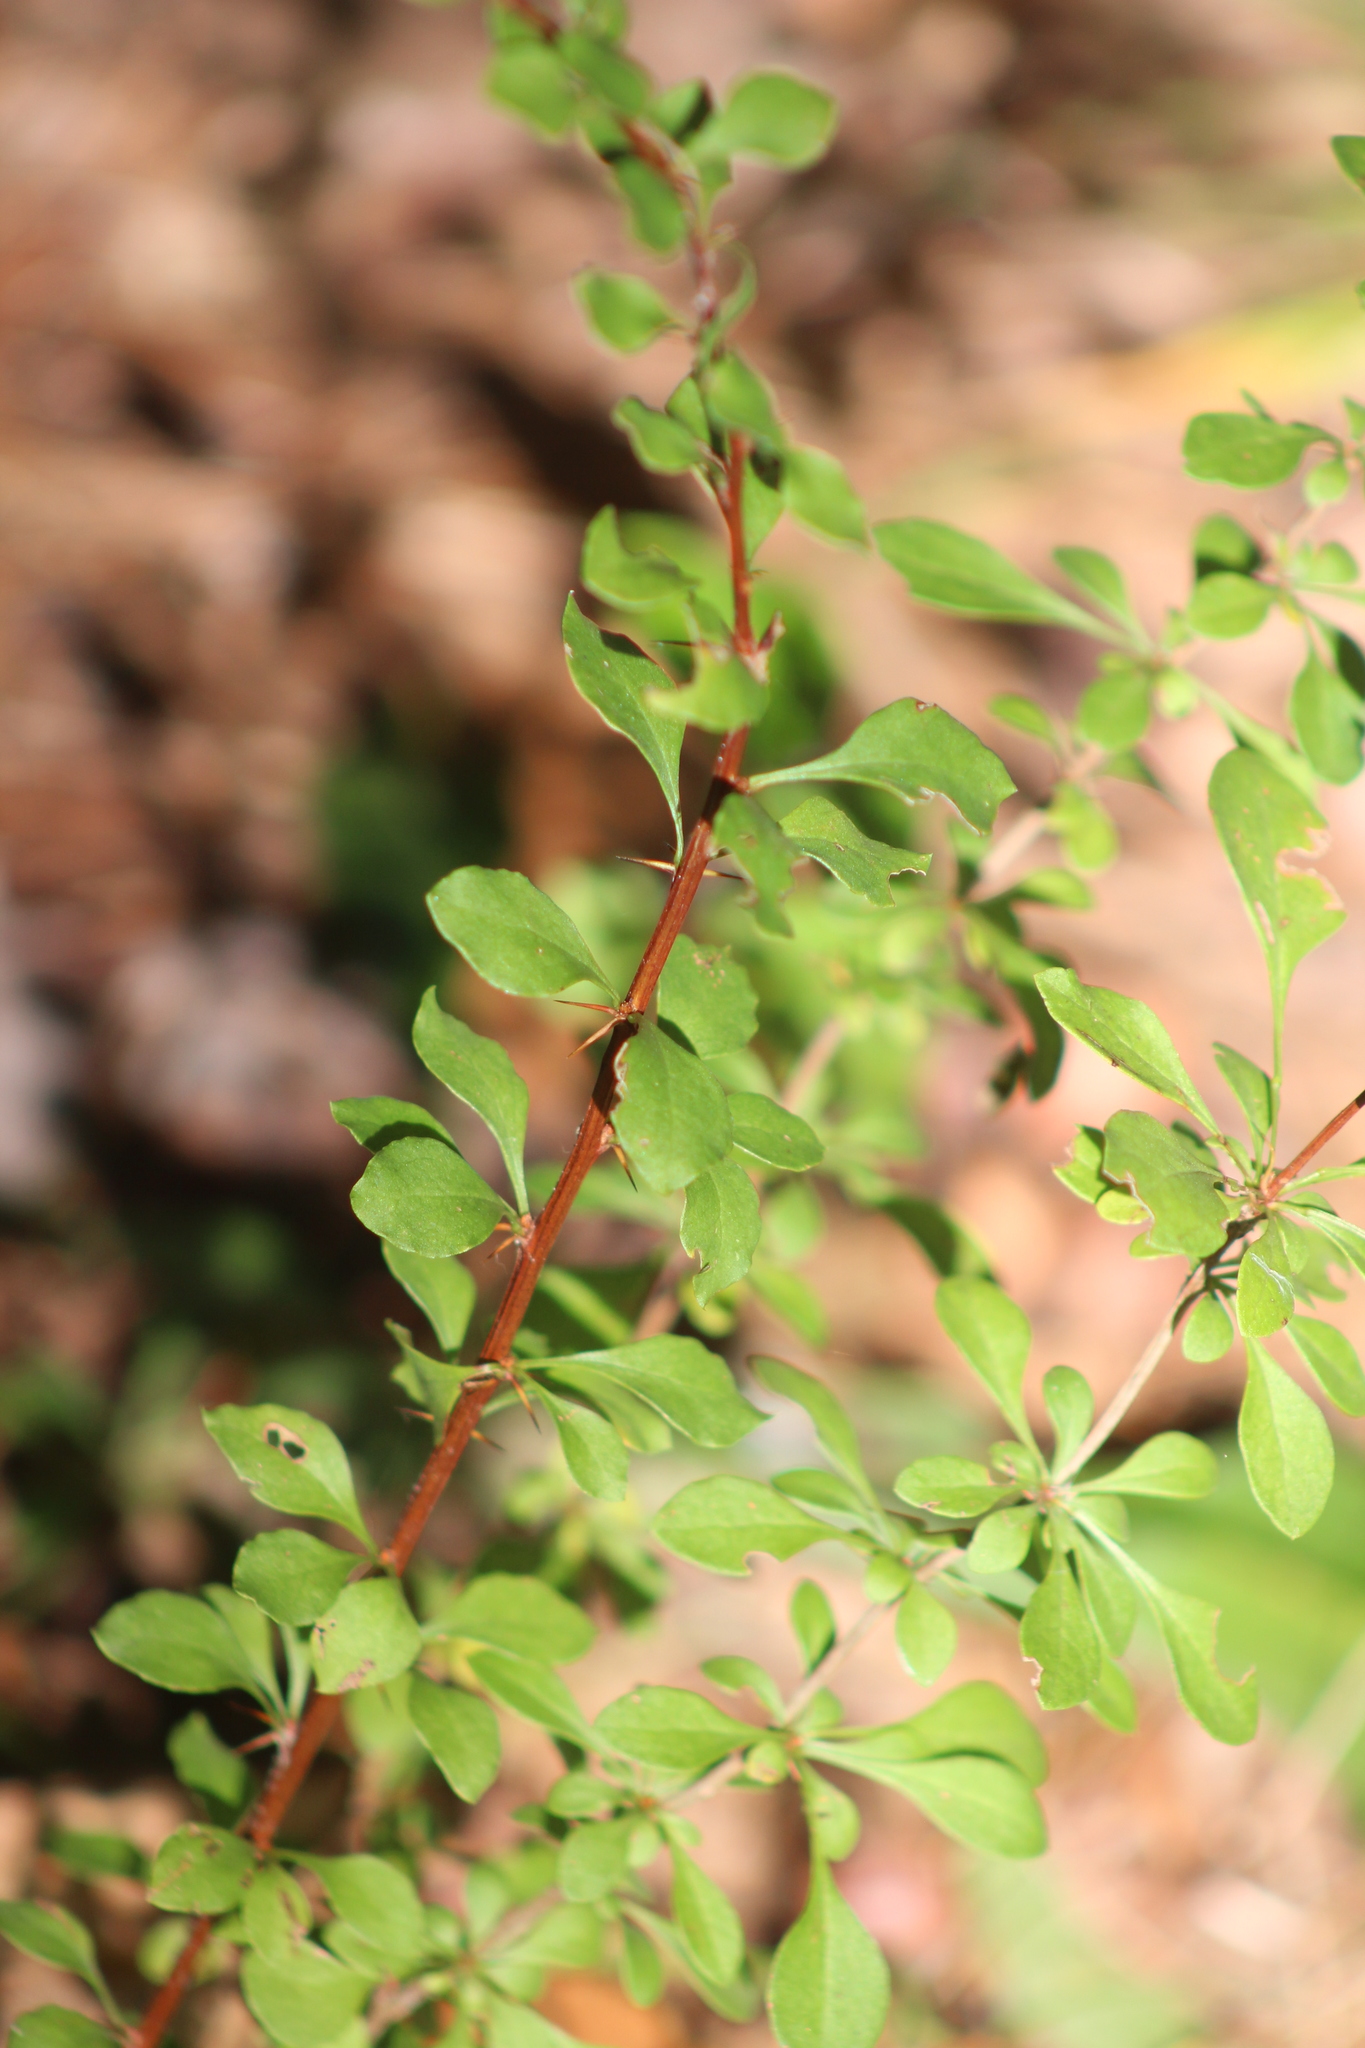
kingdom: Plantae
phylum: Tracheophyta
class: Magnoliopsida
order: Ranunculales
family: Berberidaceae
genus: Berberis
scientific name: Berberis thunbergii
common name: Japanese barberry
